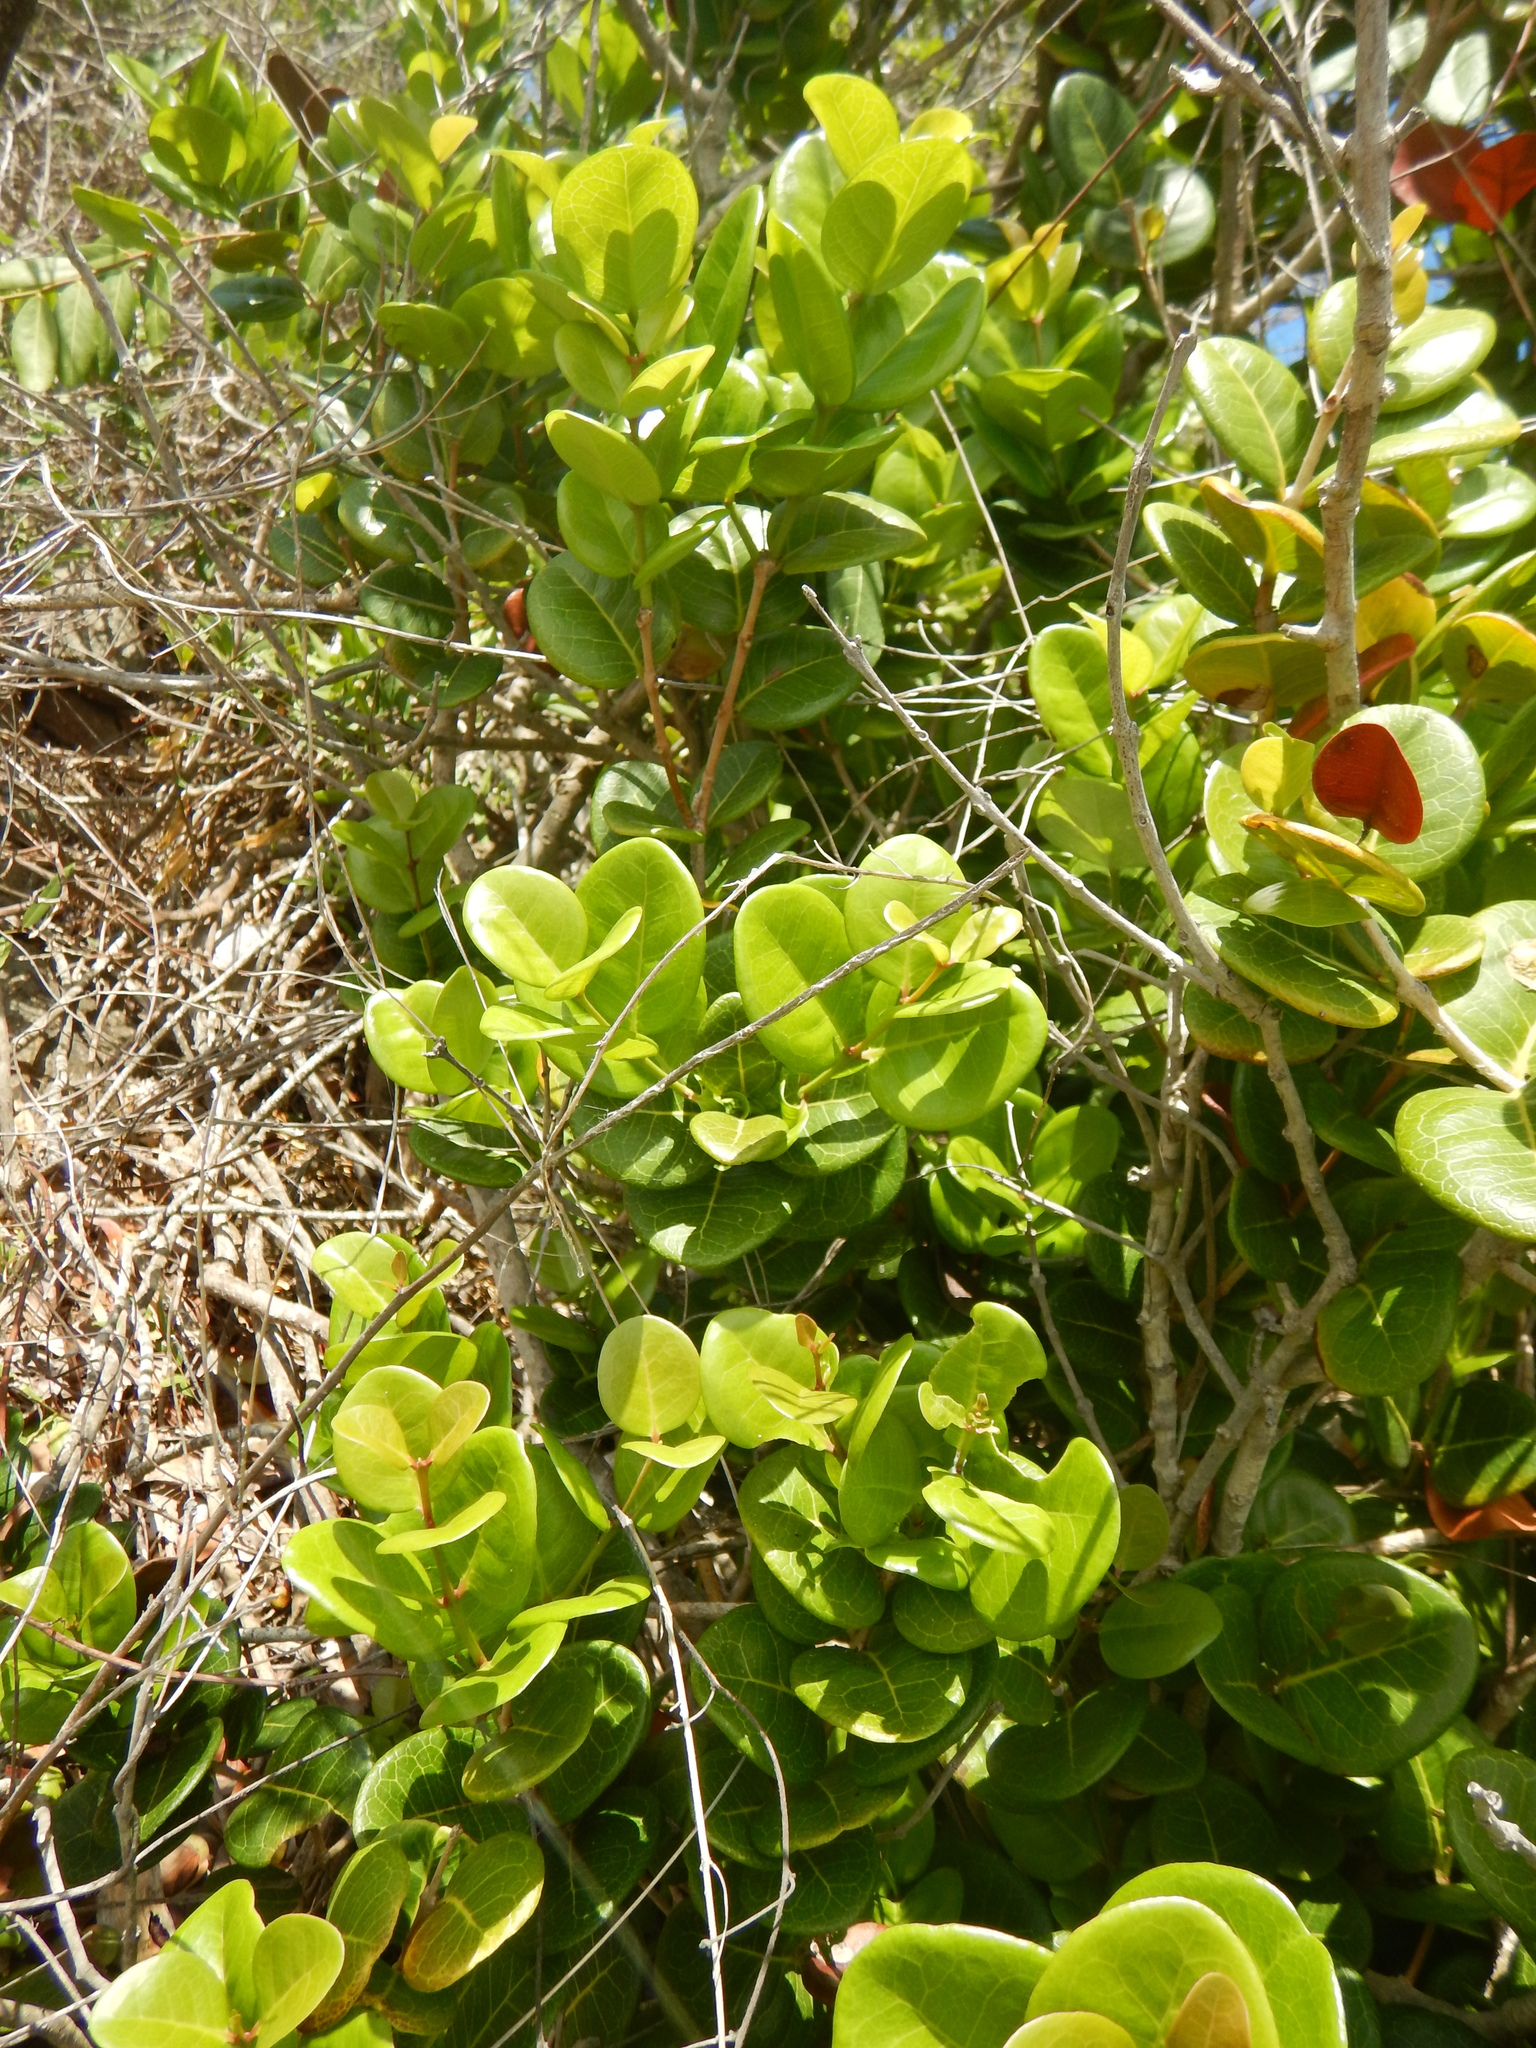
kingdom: Plantae
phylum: Tracheophyta
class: Magnoliopsida
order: Myrtales
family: Myrtaceae
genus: Eugenia
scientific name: Eugenia sessiliflora
